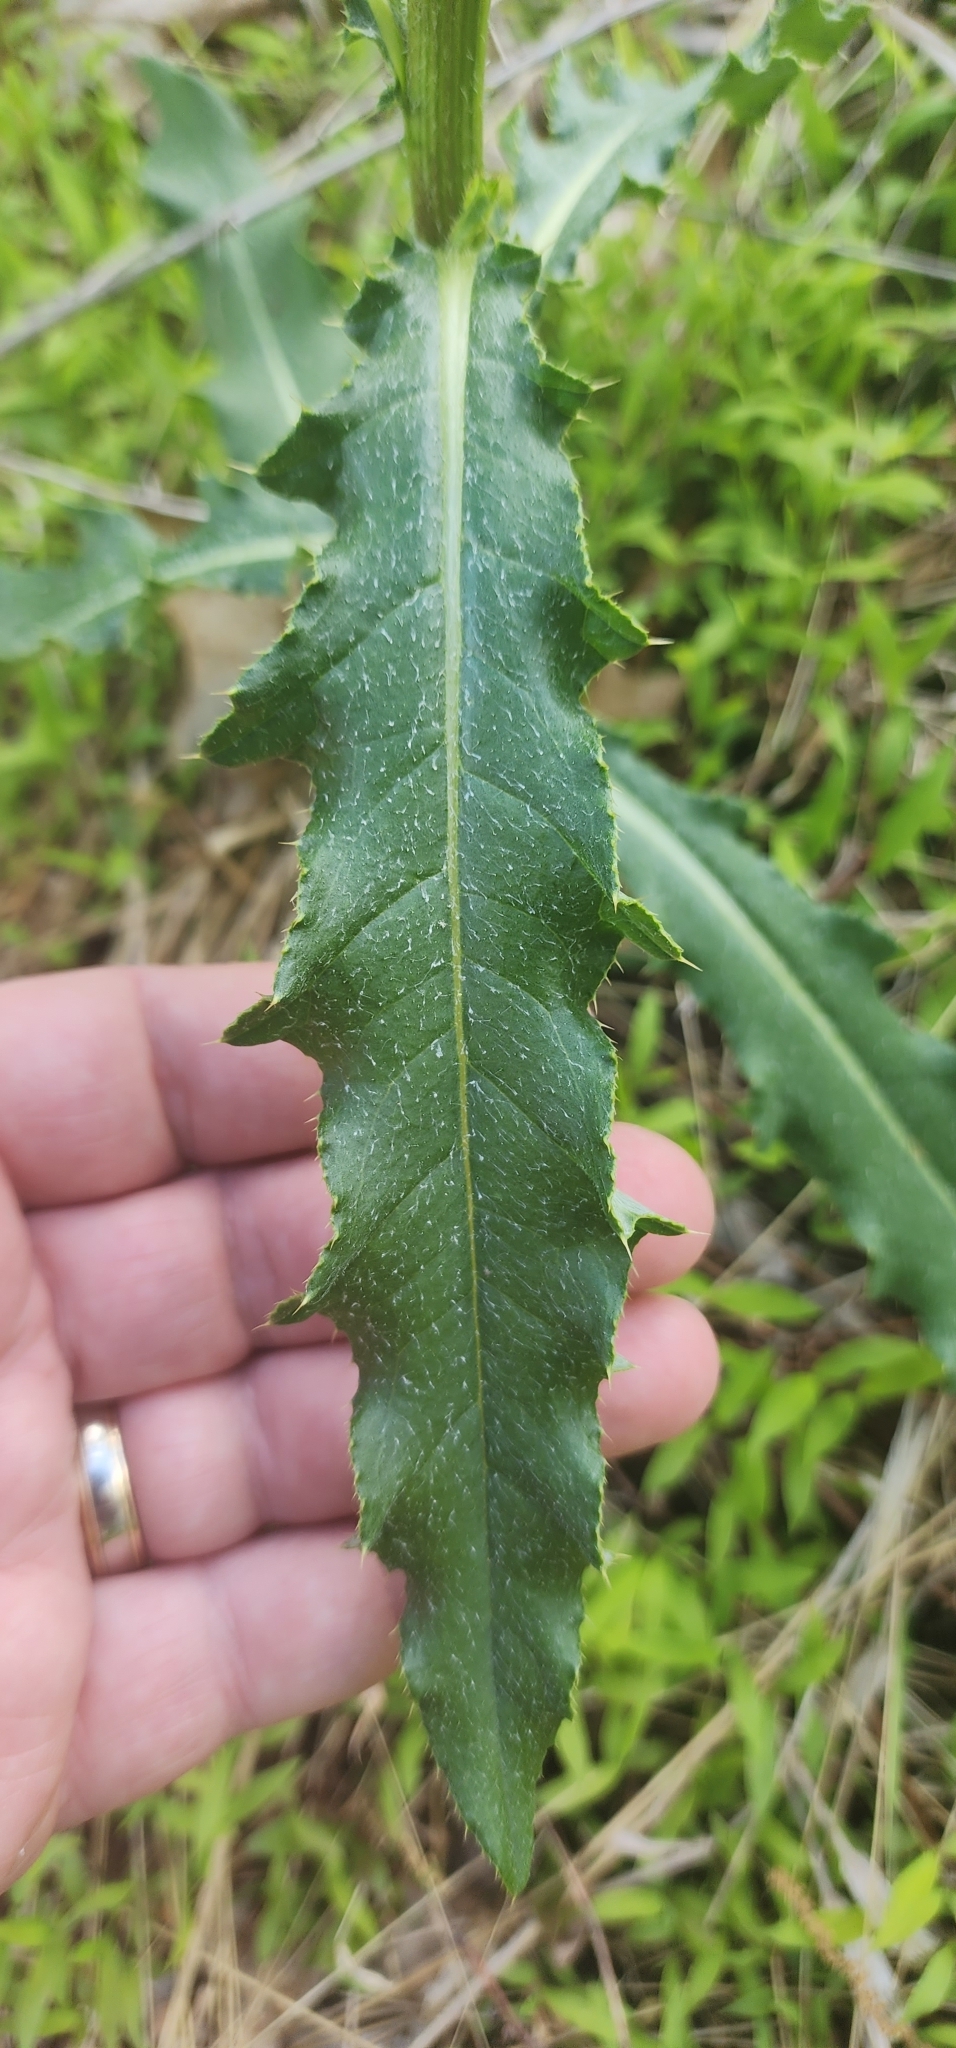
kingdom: Plantae
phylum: Tracheophyta
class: Magnoliopsida
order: Asterales
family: Asteraceae
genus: Cirsium
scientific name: Cirsium arvense
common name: Creeping thistle
